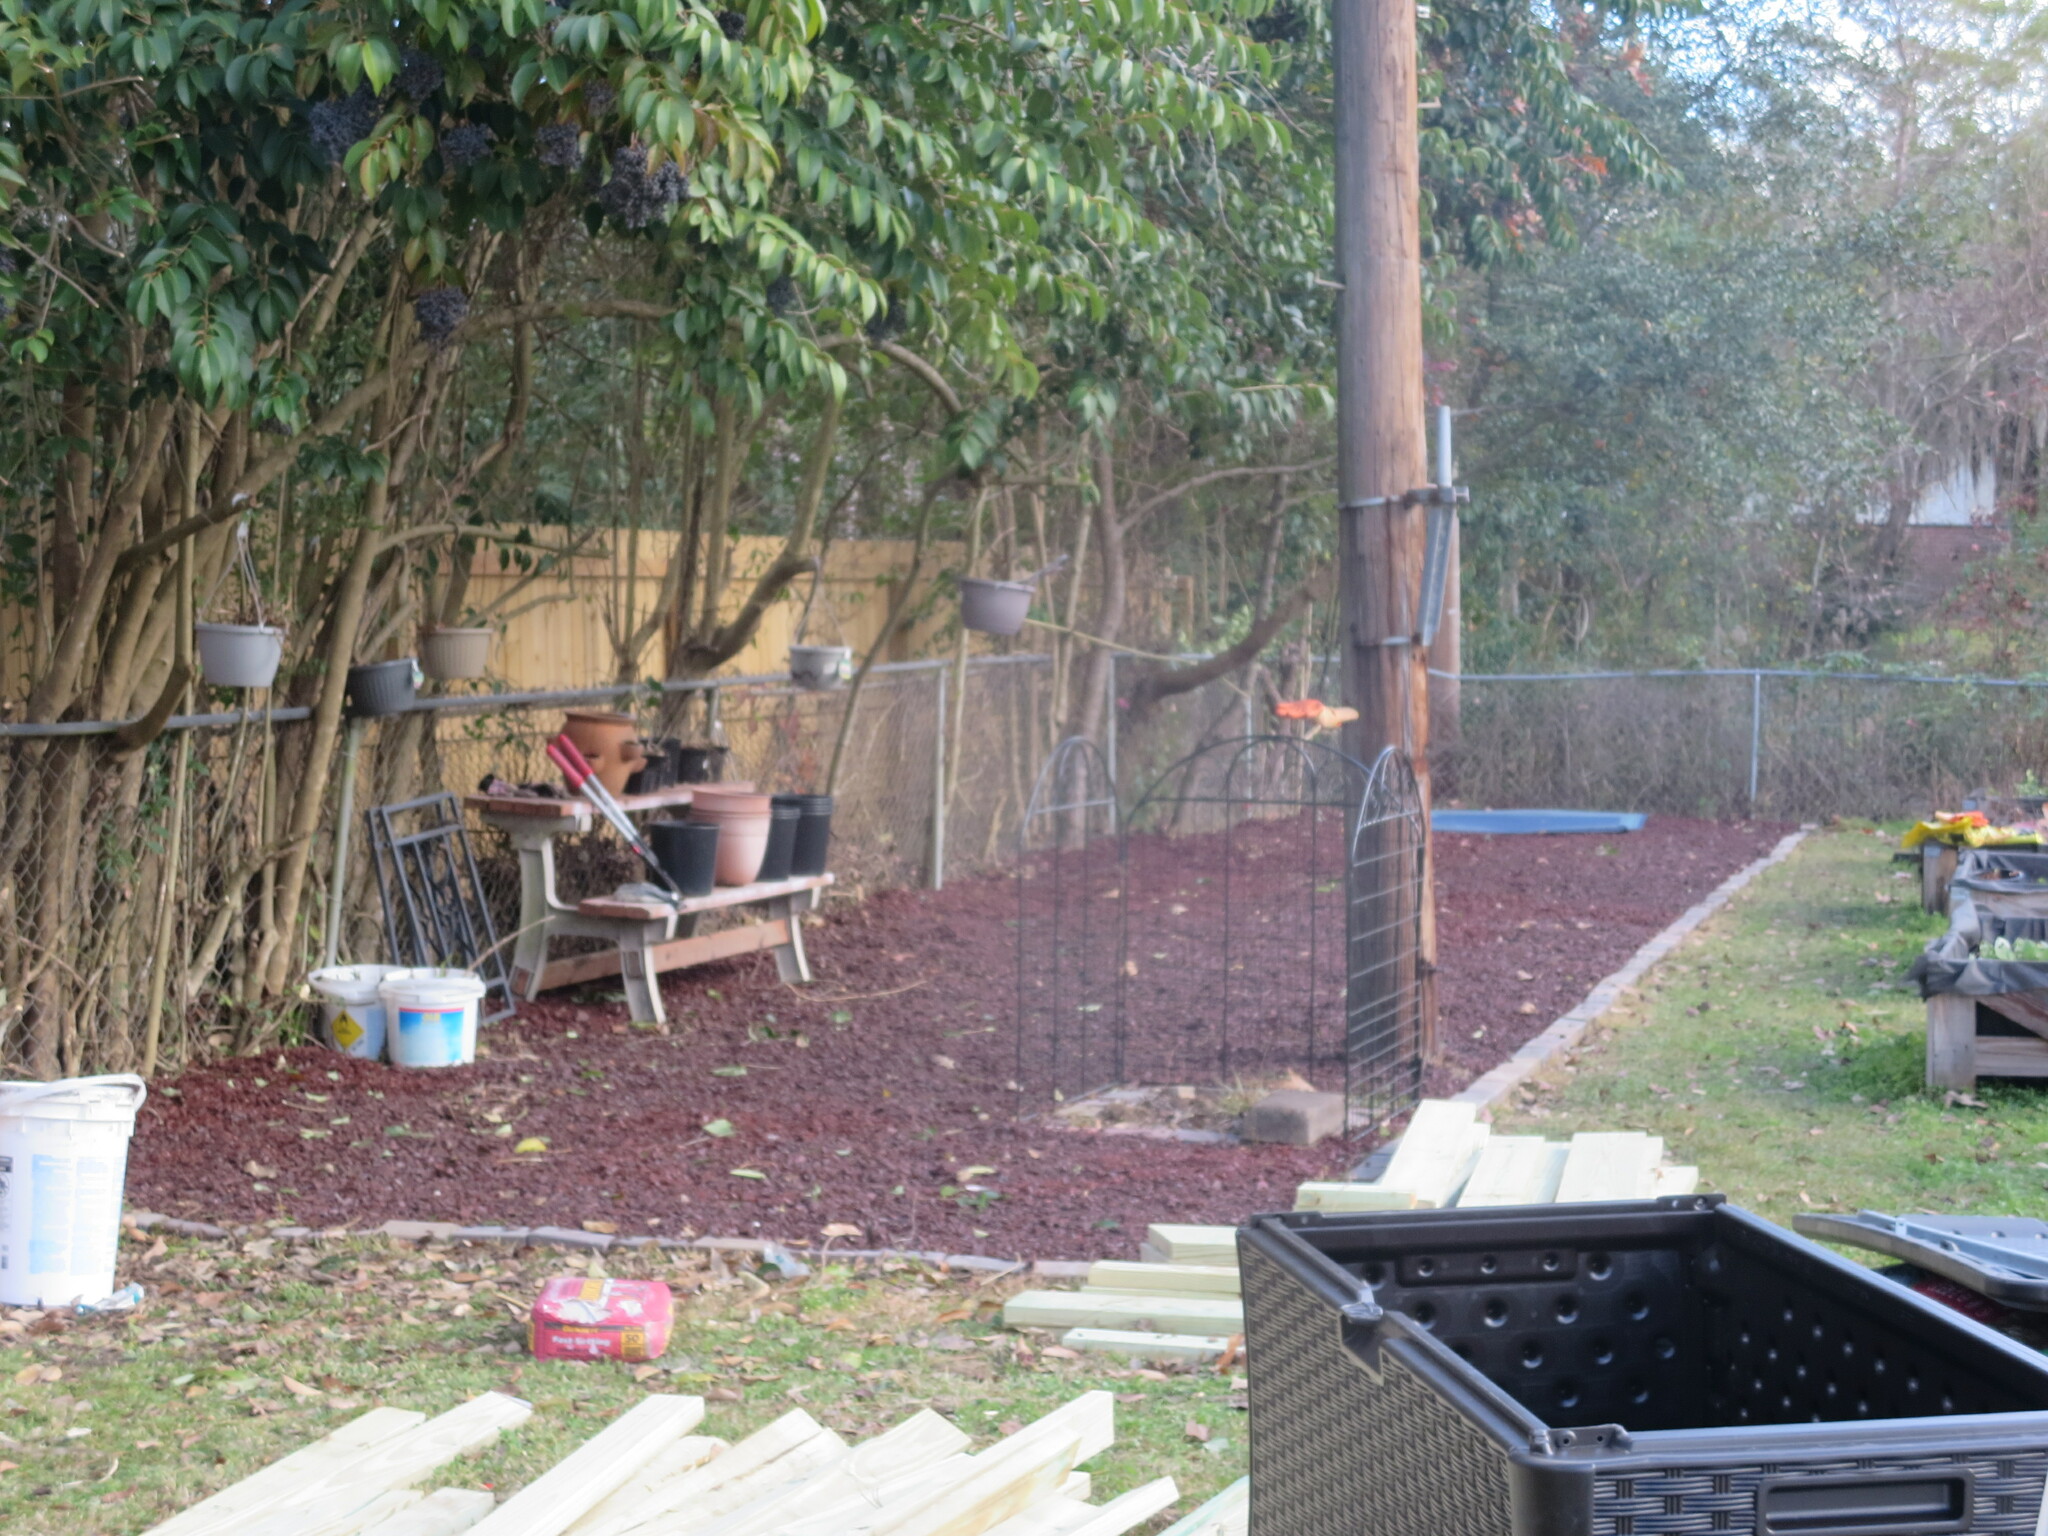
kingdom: Plantae
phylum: Tracheophyta
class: Magnoliopsida
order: Lamiales
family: Oleaceae
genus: Ligustrum
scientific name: Ligustrum lucidum
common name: Glossy privet
